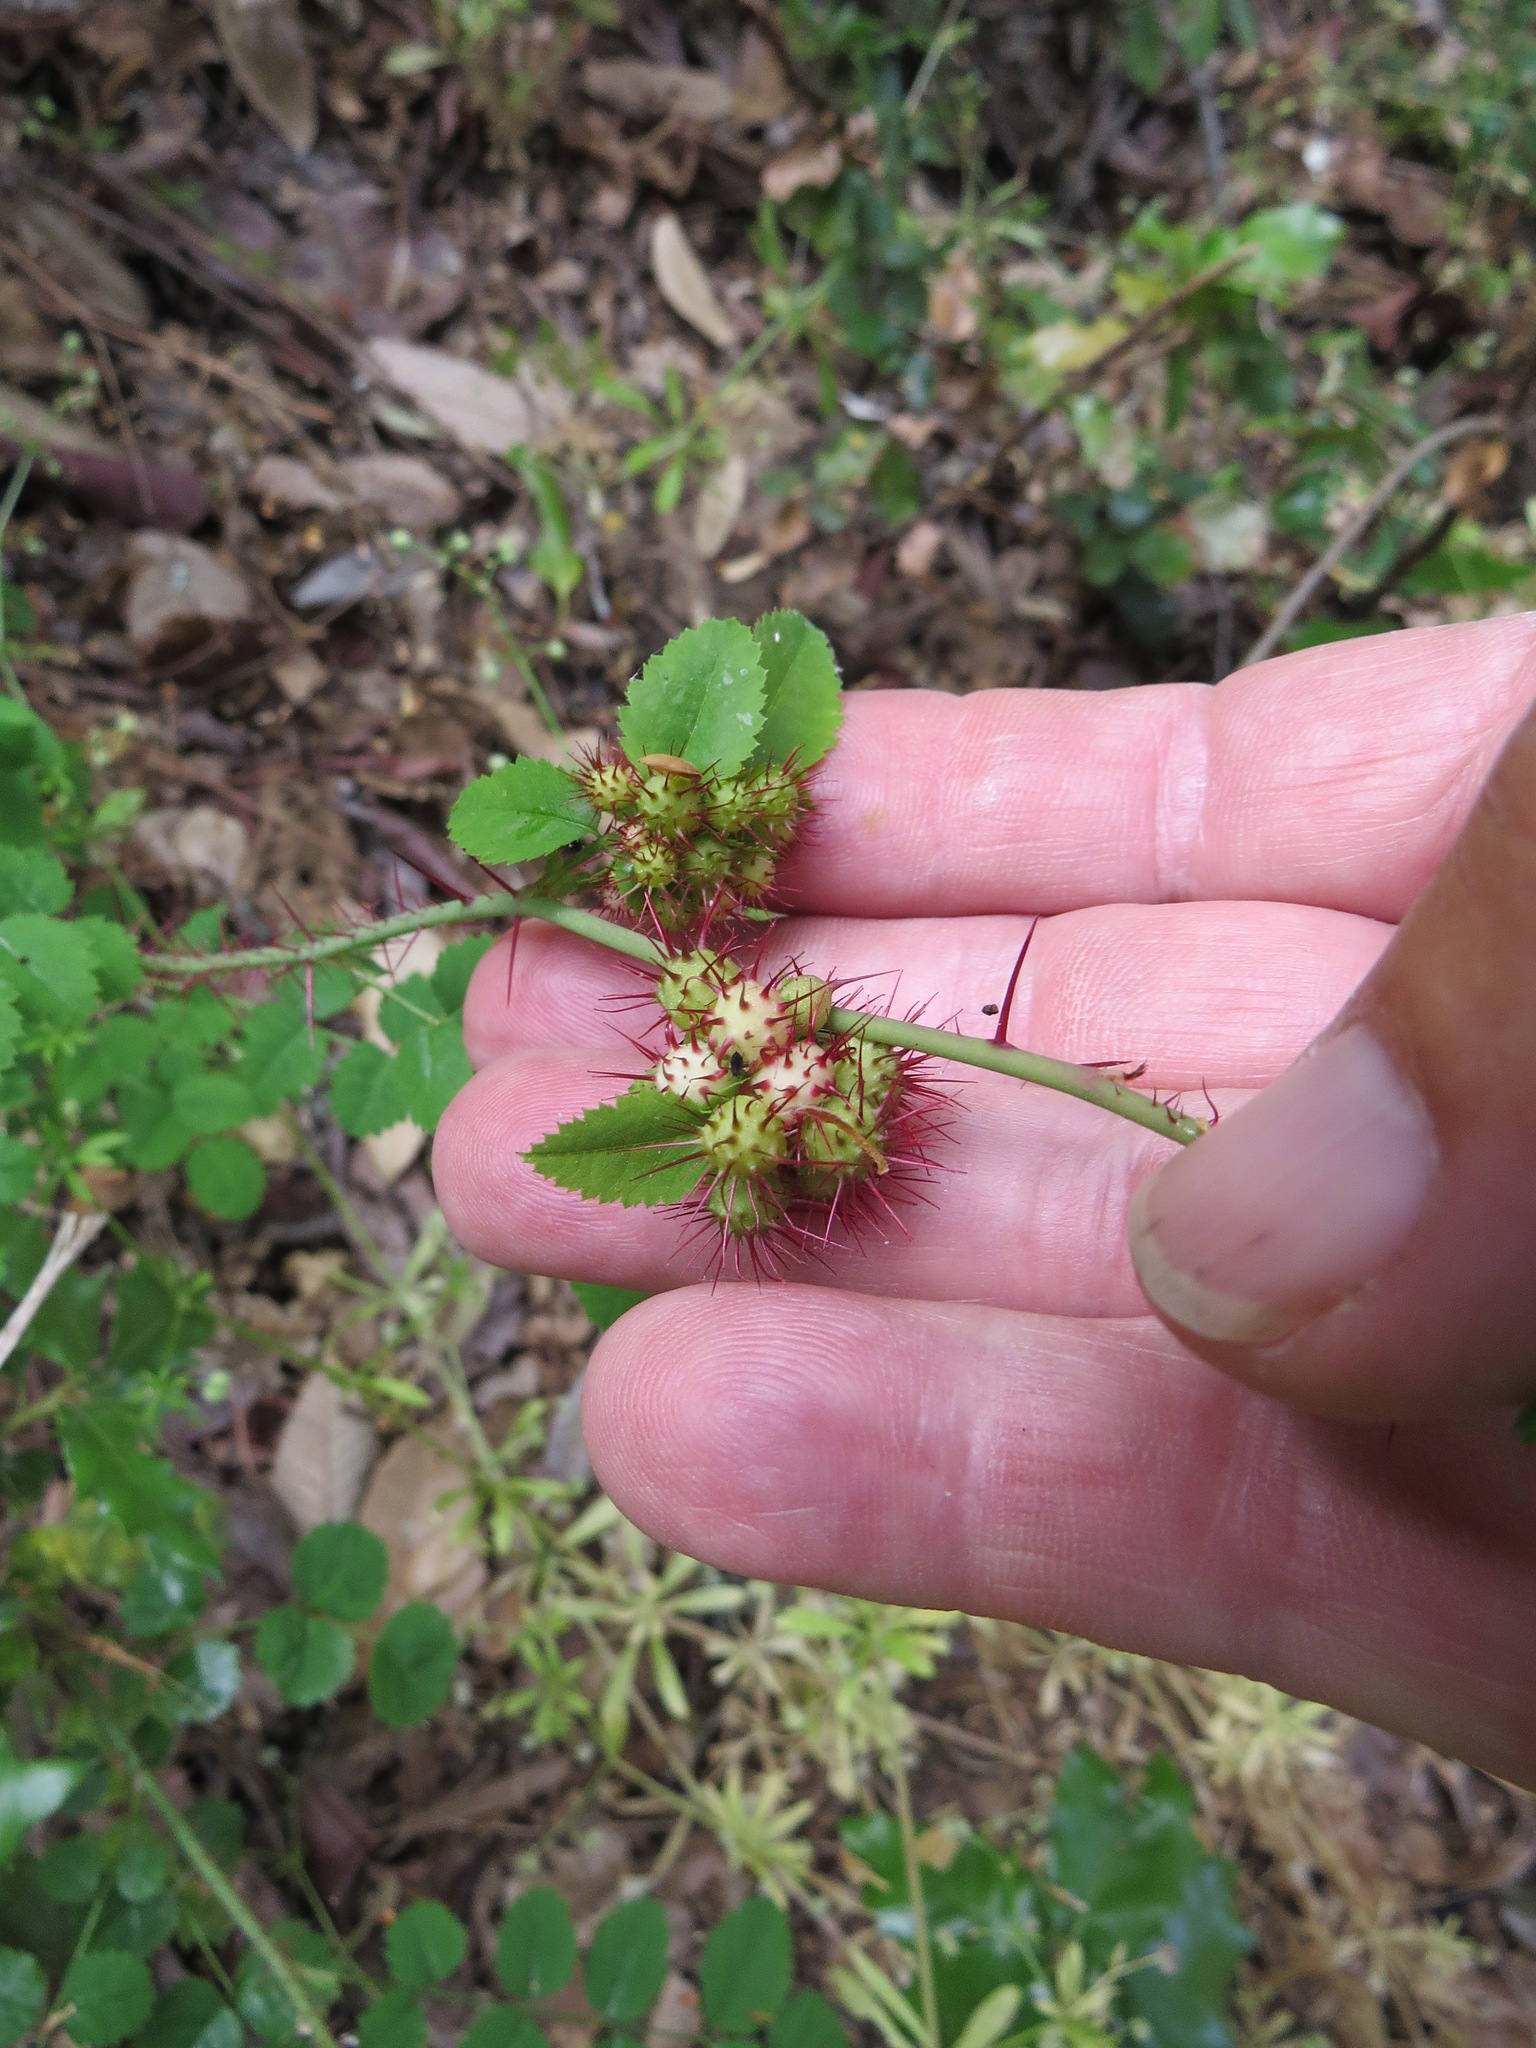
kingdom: Animalia
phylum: Arthropoda
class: Insecta
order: Hymenoptera
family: Cynipidae
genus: Diplolepis
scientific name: Diplolepis polita
